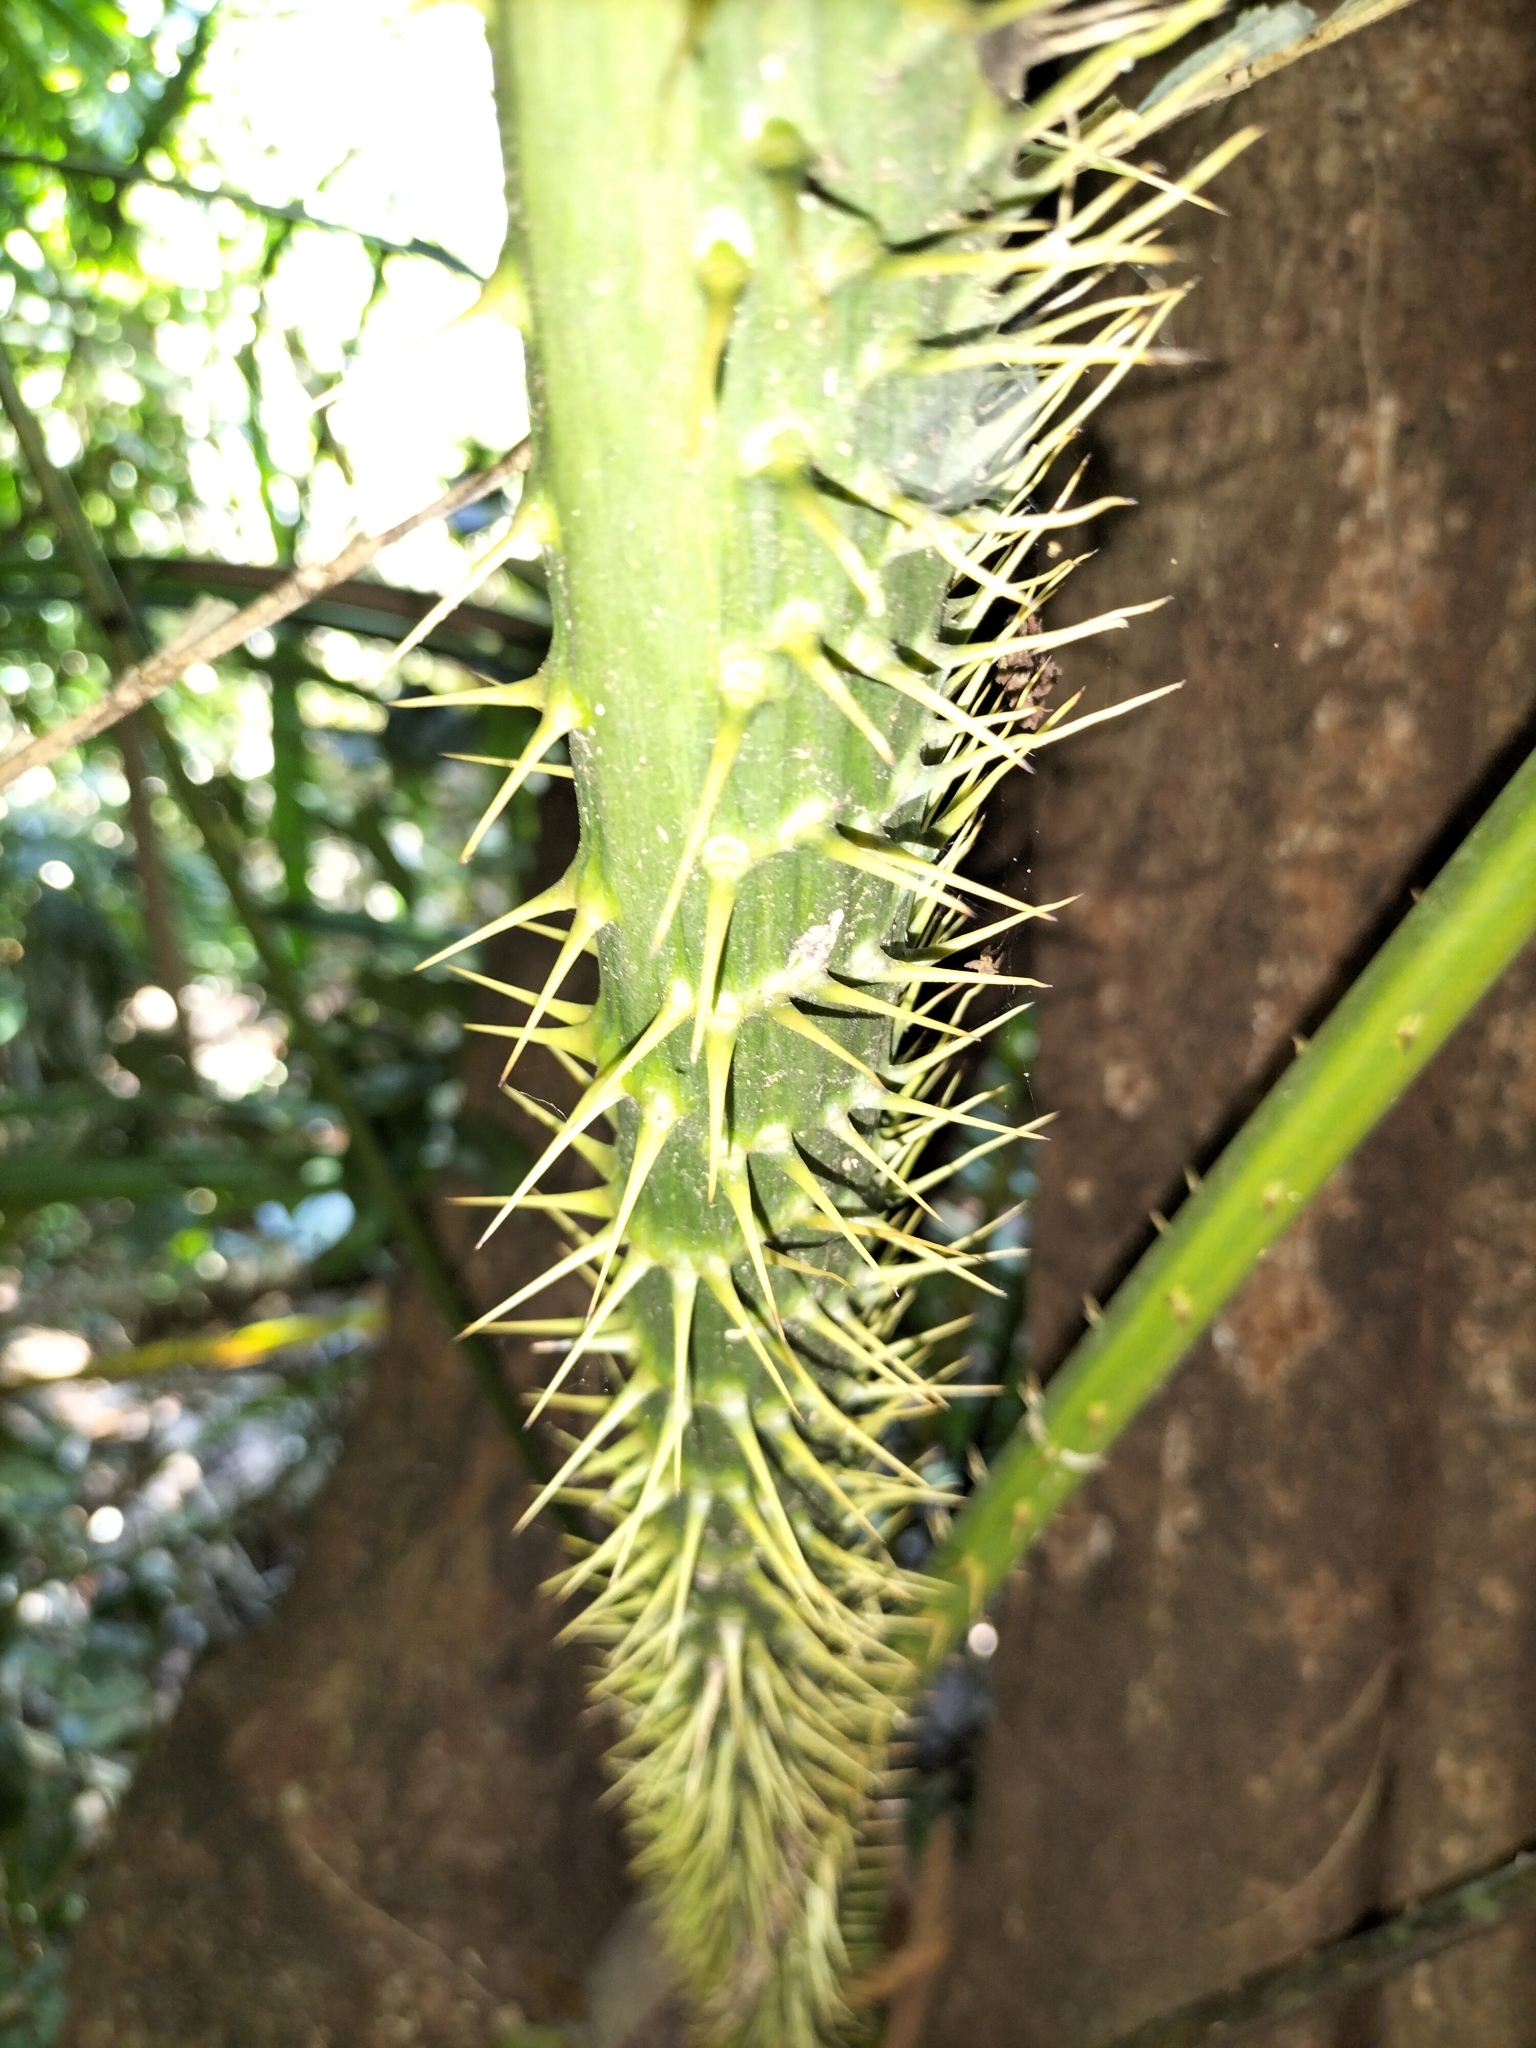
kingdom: Plantae
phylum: Tracheophyta
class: Liliopsida
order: Arecales
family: Arecaceae
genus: Calamus
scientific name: Calamus moti
